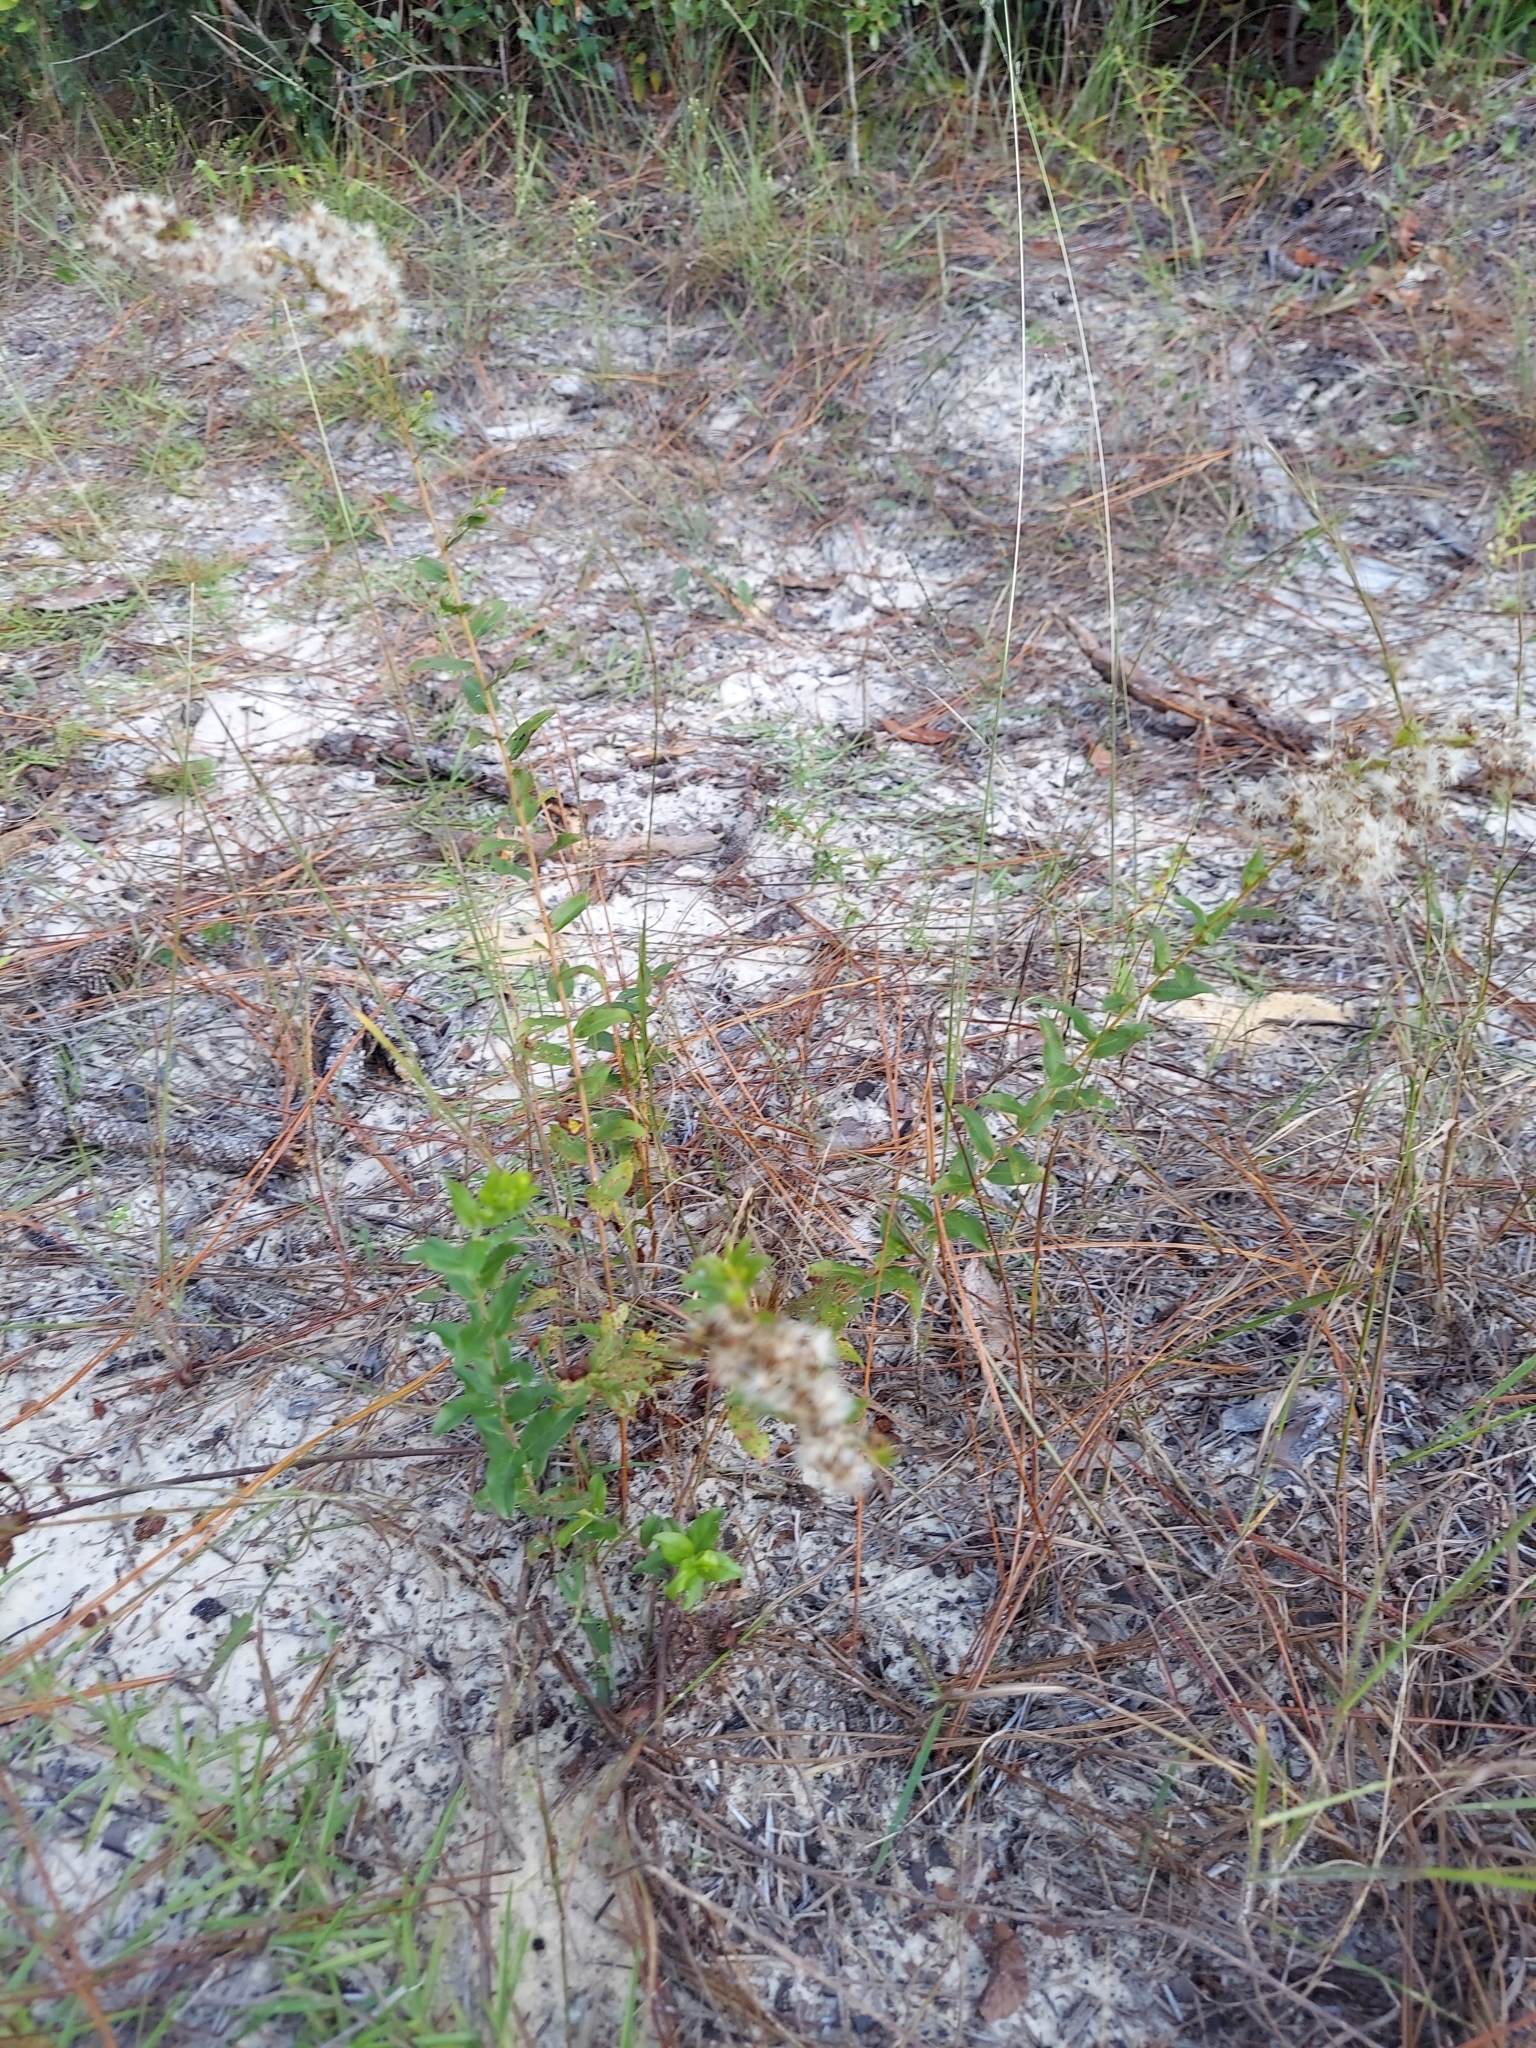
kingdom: Plantae
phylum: Tracheophyta
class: Magnoliopsida
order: Asterales
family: Asteraceae
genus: Solidago
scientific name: Solidago chapmanii
